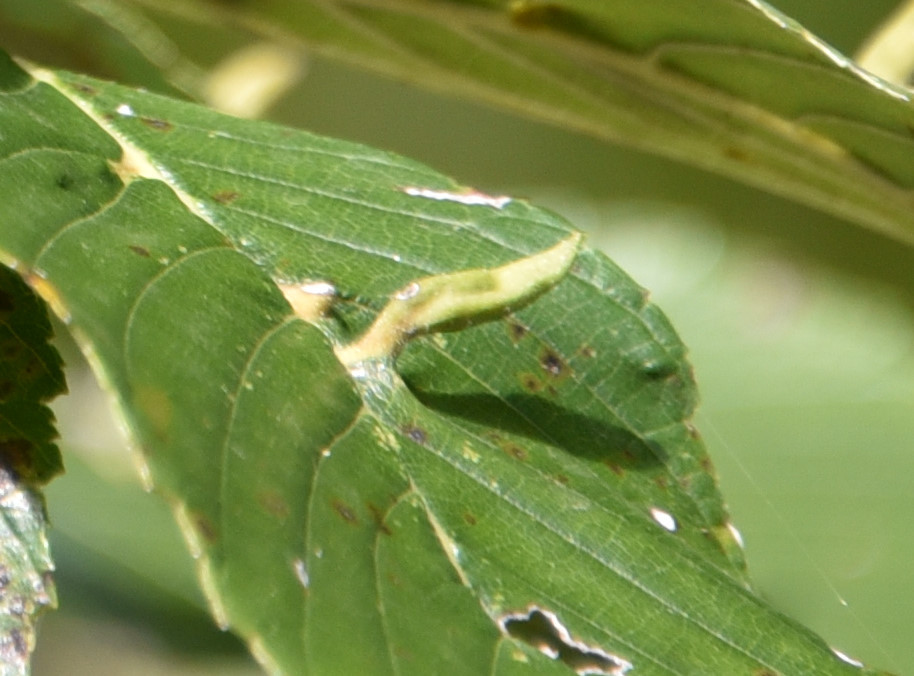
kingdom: Animalia
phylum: Arthropoda
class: Arachnida
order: Trombidiformes
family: Eriophyidae
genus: Aceria
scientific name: Aceria
